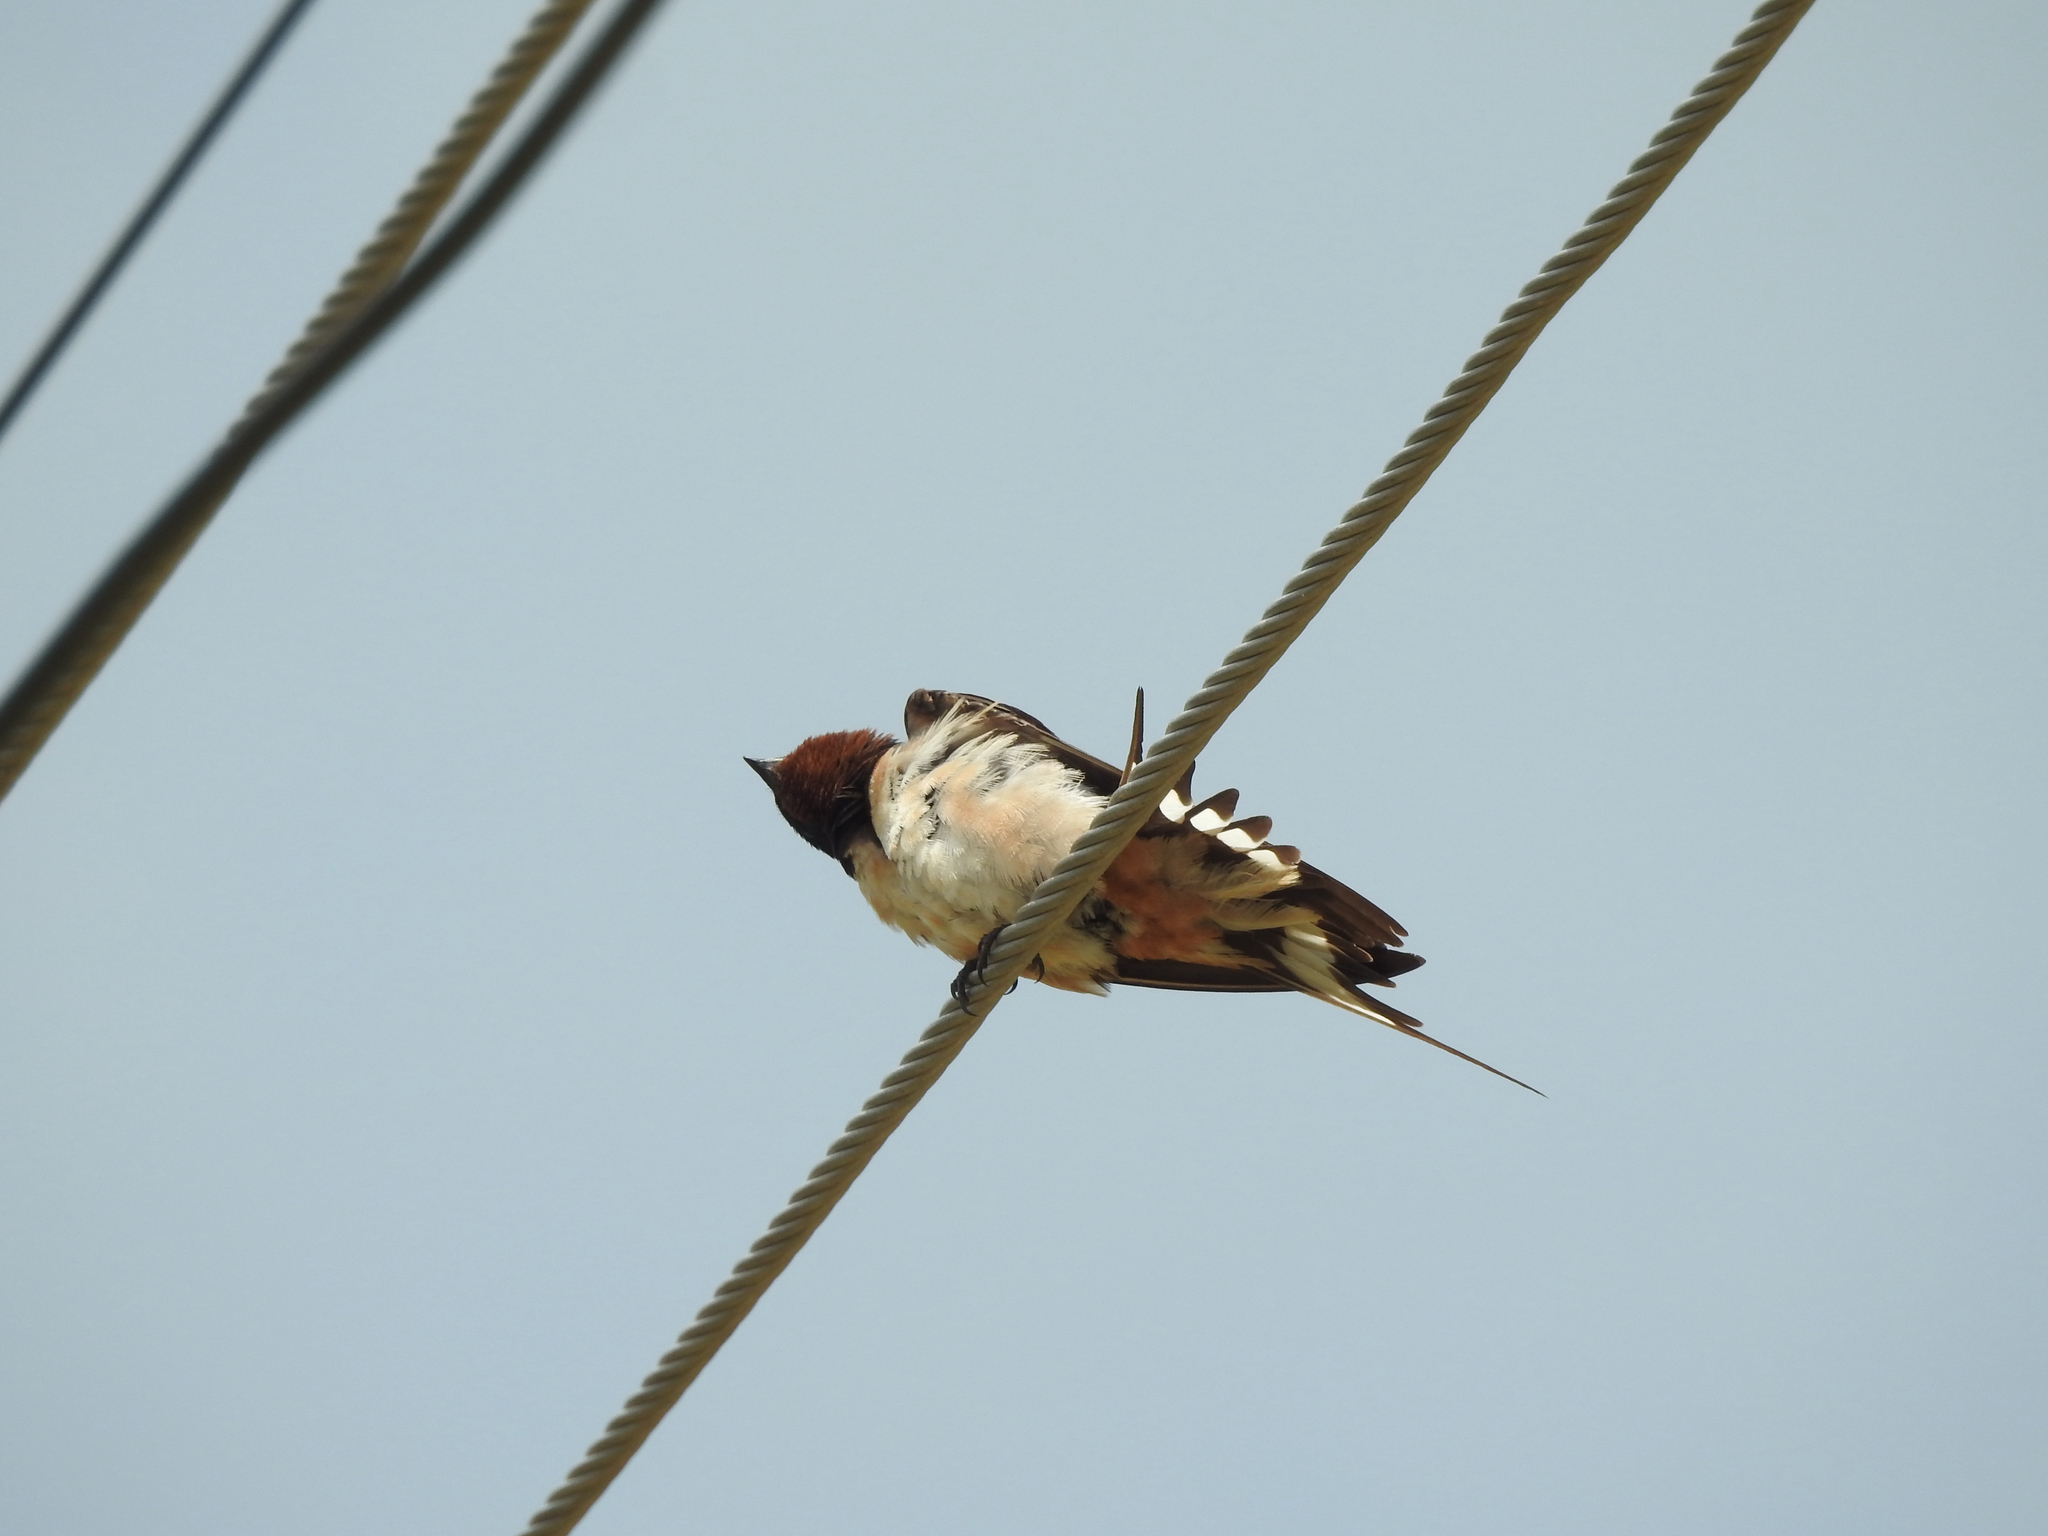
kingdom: Animalia
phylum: Chordata
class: Aves
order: Passeriformes
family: Hirundinidae
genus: Hirundo
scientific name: Hirundo rustica
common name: Barn swallow
